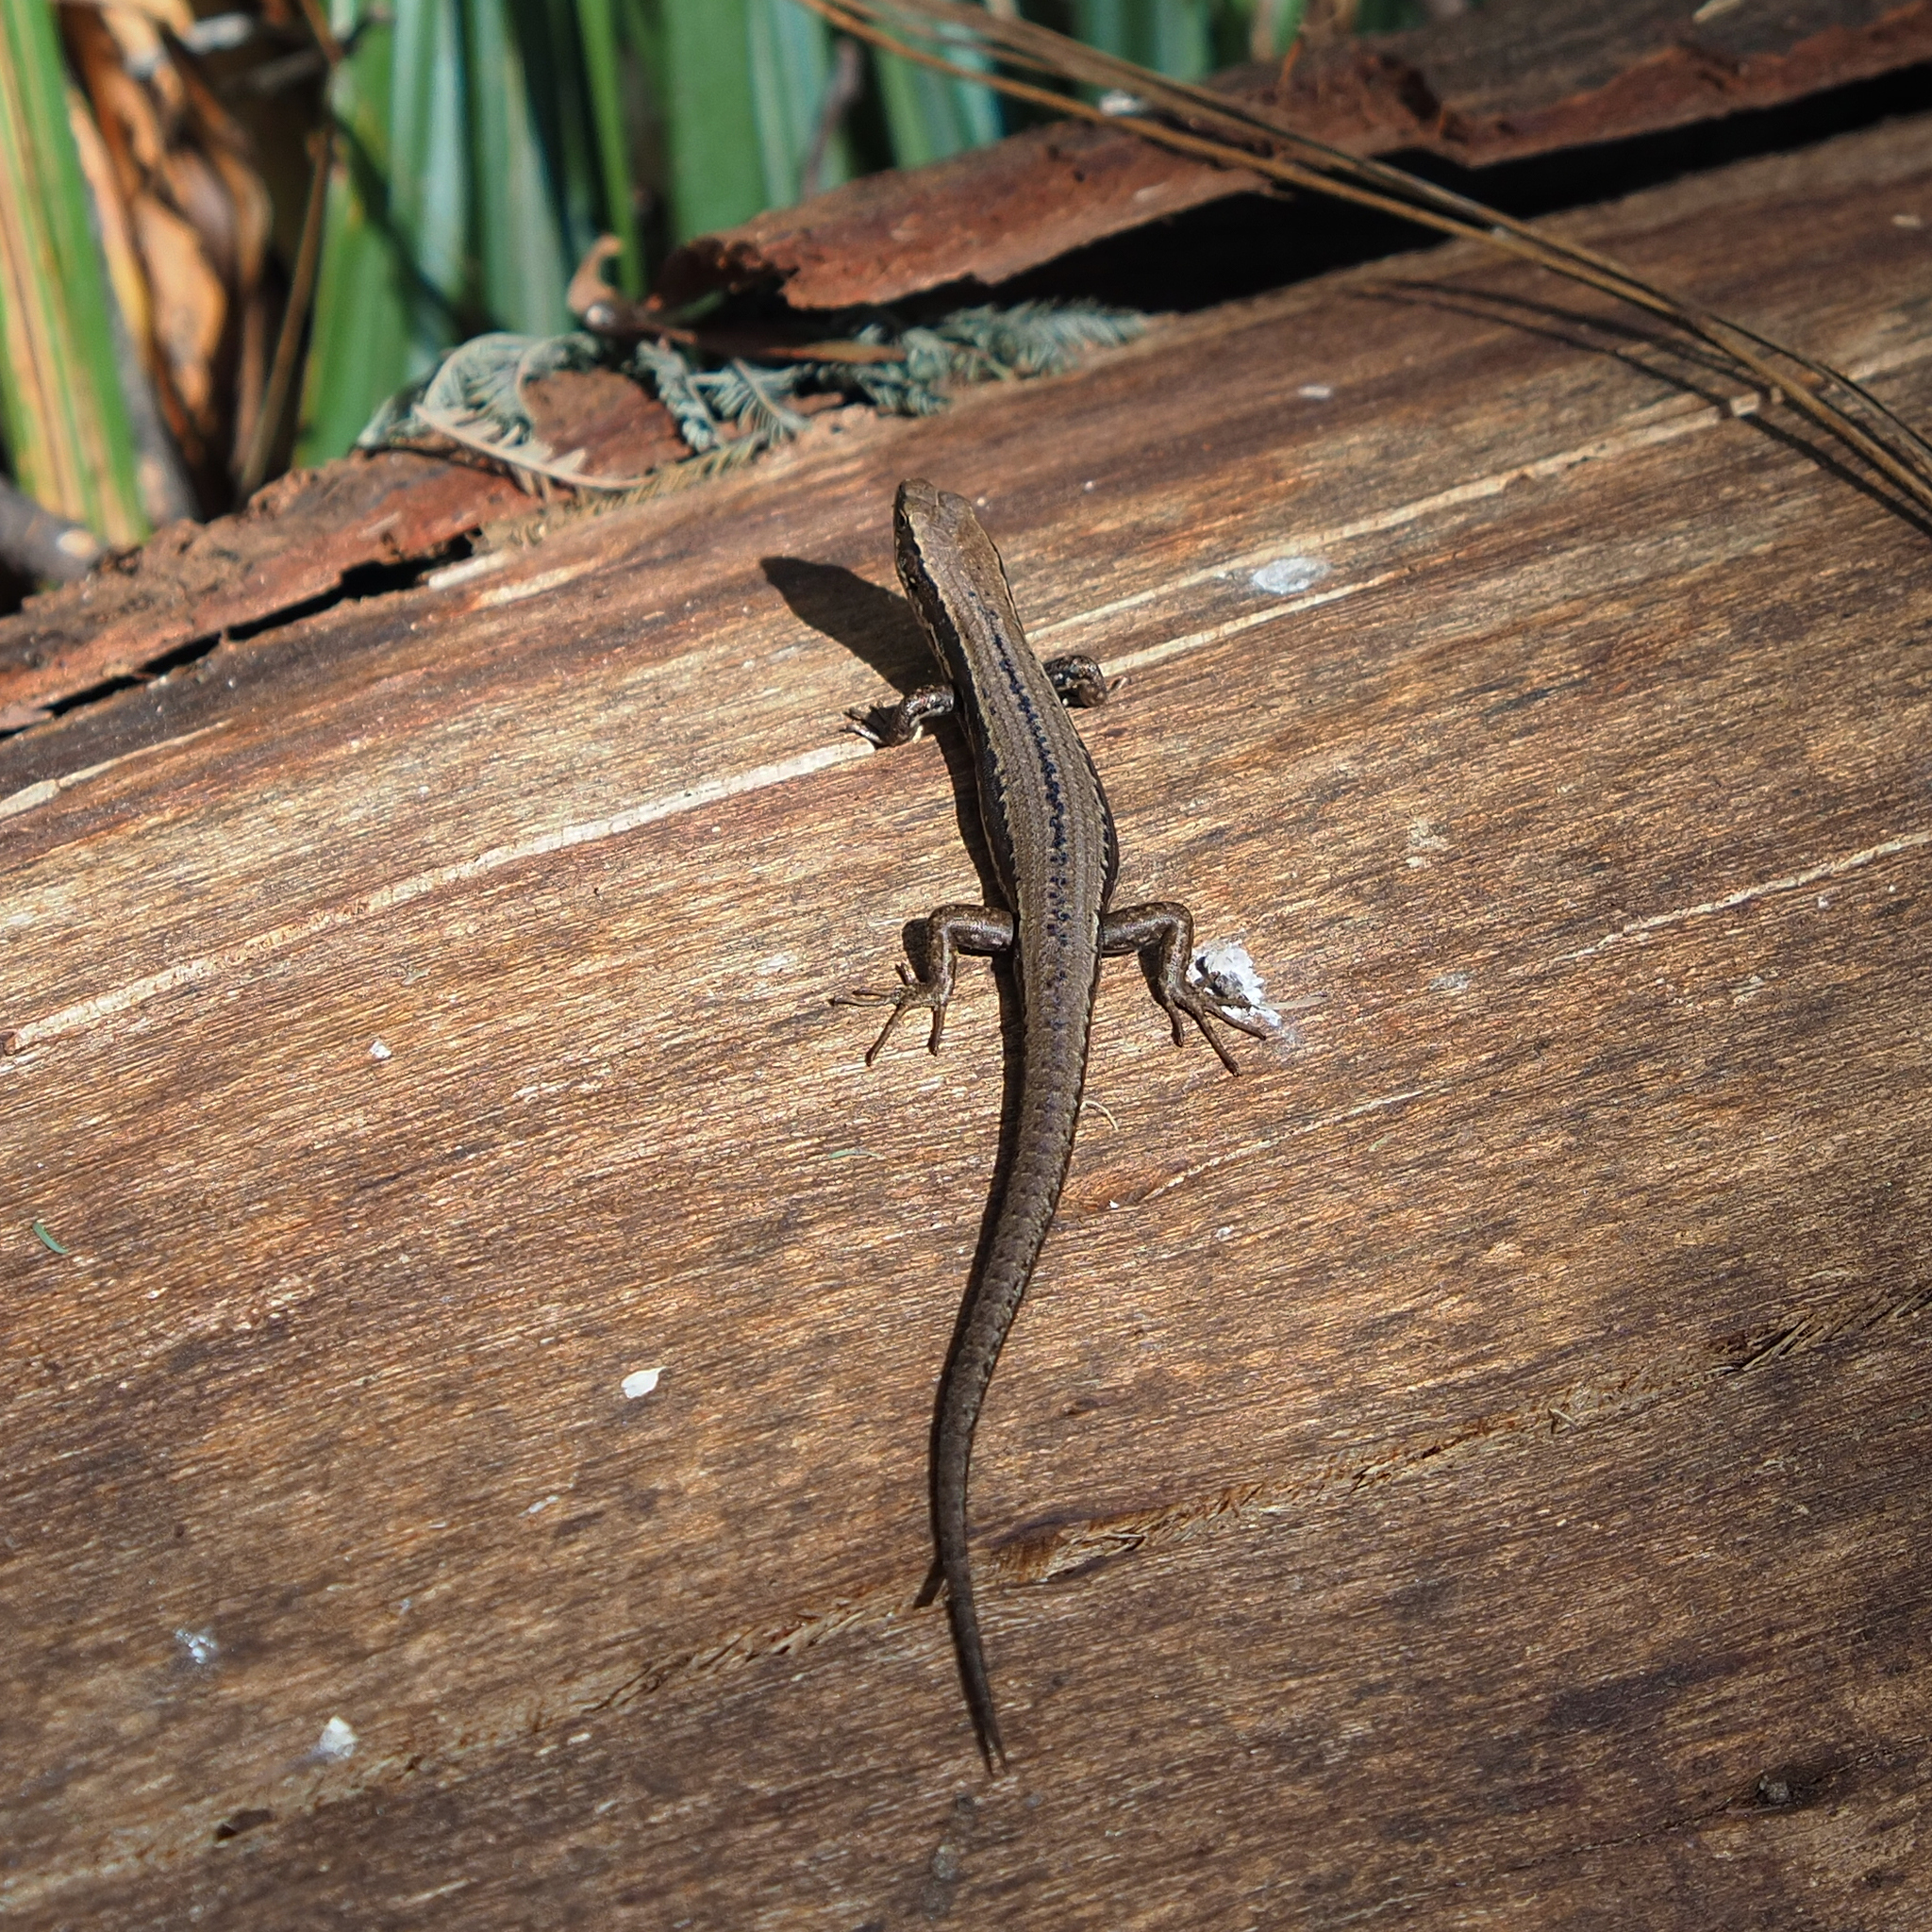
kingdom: Animalia
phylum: Chordata
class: Squamata
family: Scincidae
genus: Carinascincus
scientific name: Carinascincus pretiosus
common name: Agile cool-skink
